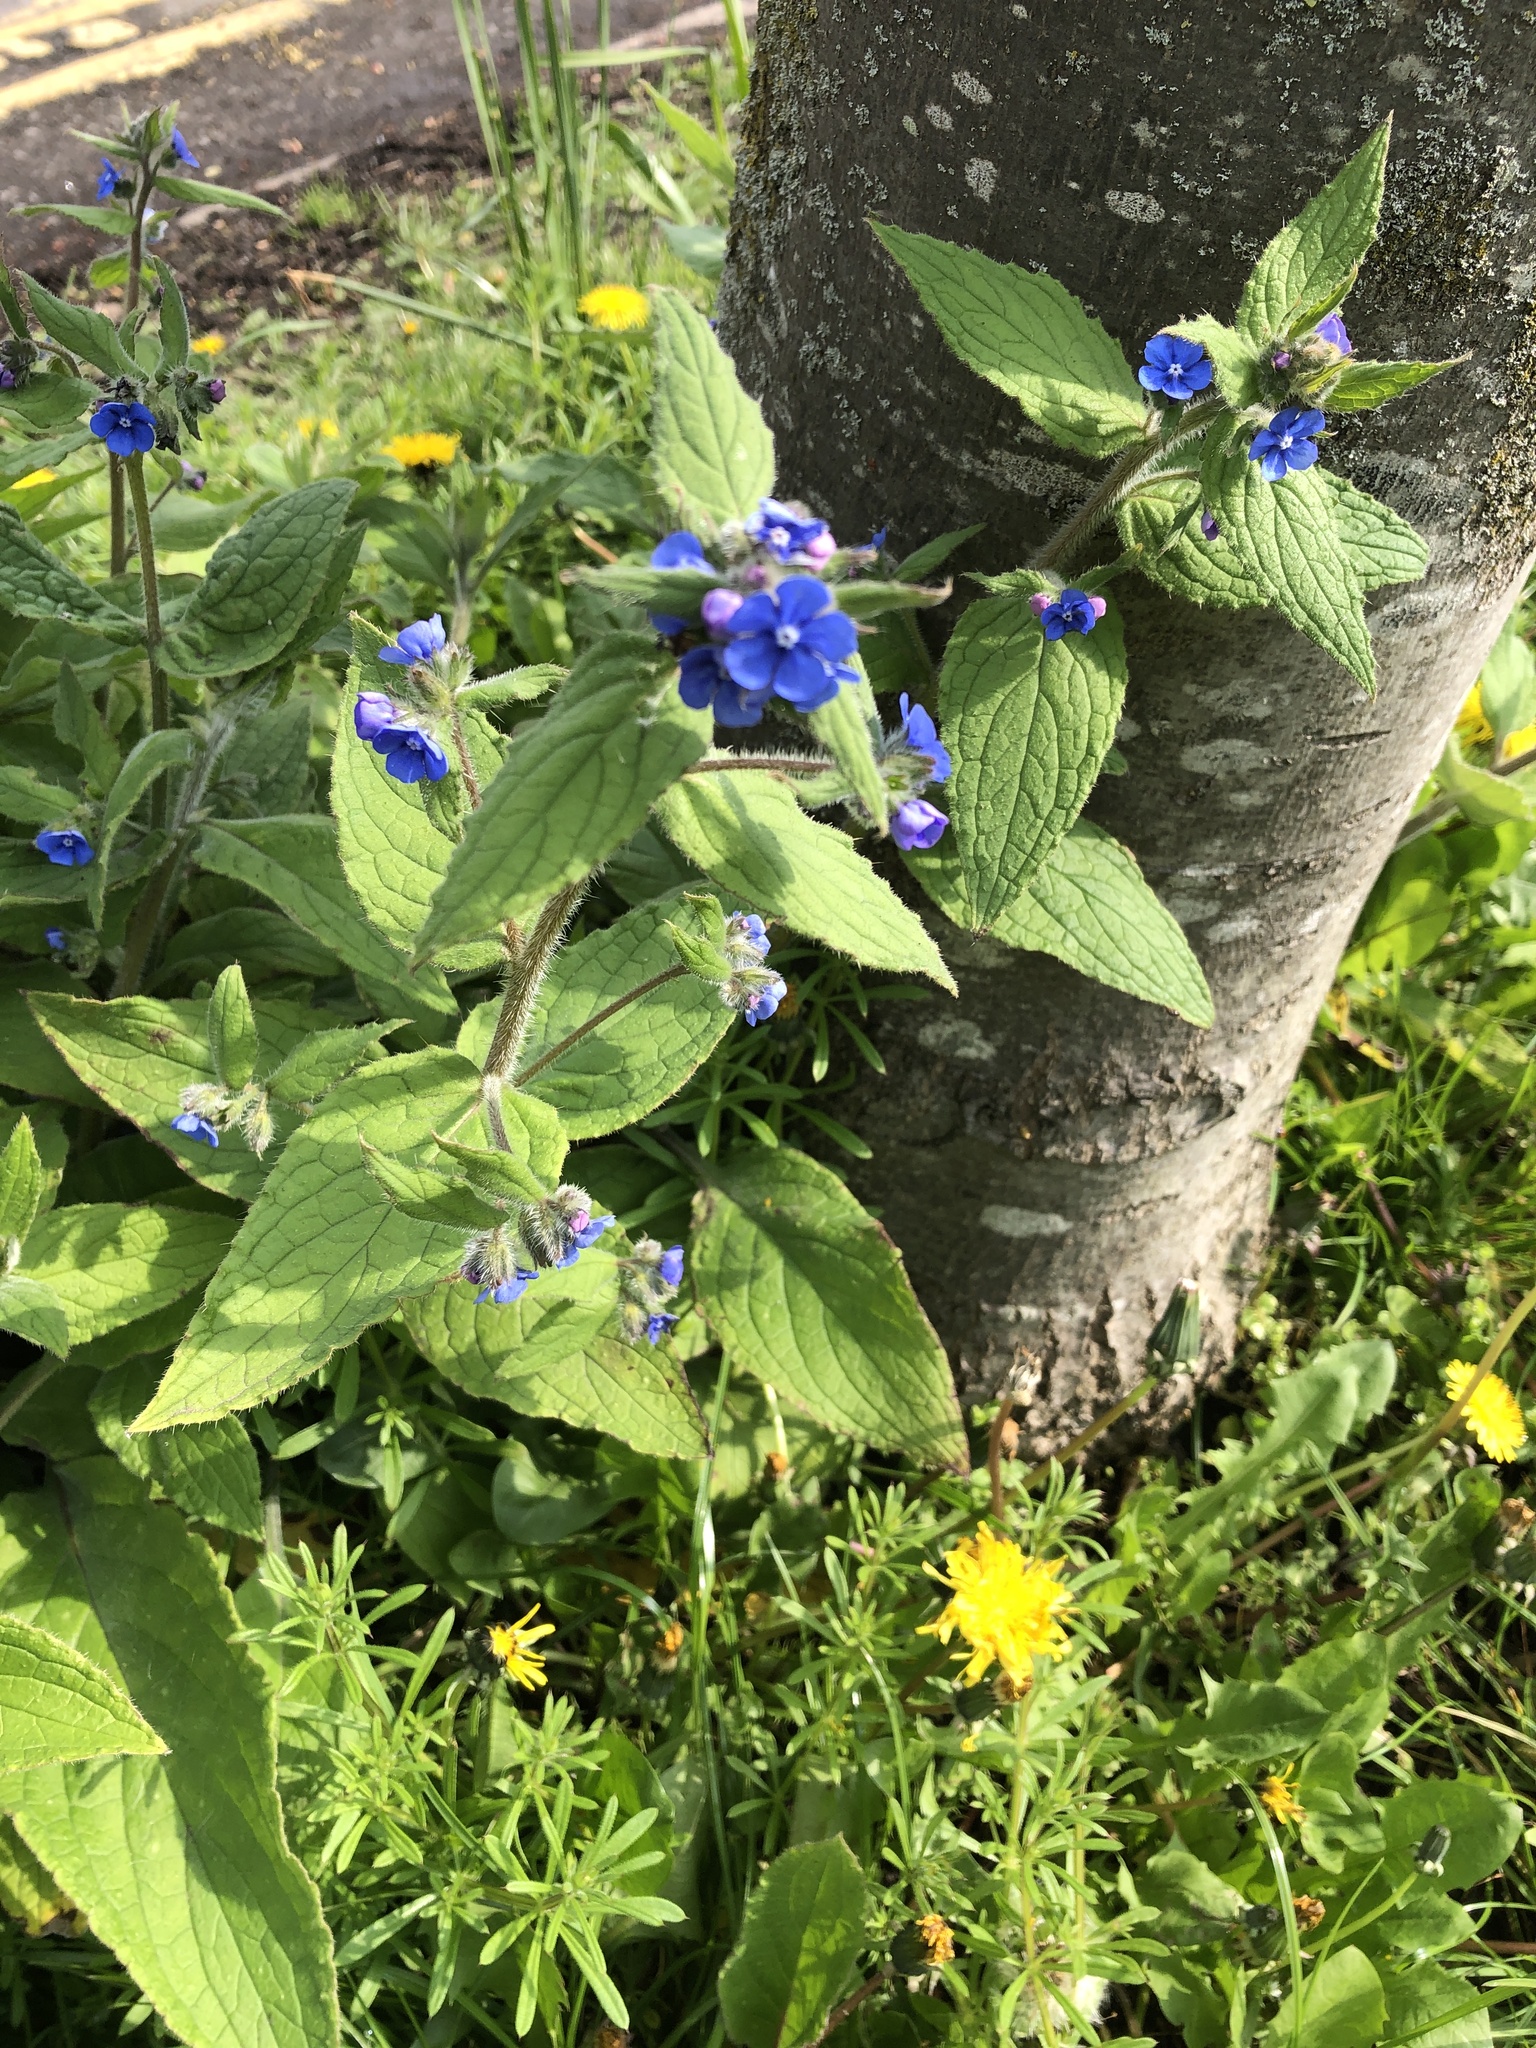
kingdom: Plantae
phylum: Tracheophyta
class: Magnoliopsida
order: Boraginales
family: Boraginaceae
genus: Pentaglottis
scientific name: Pentaglottis sempervirens
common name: Green alkanet
